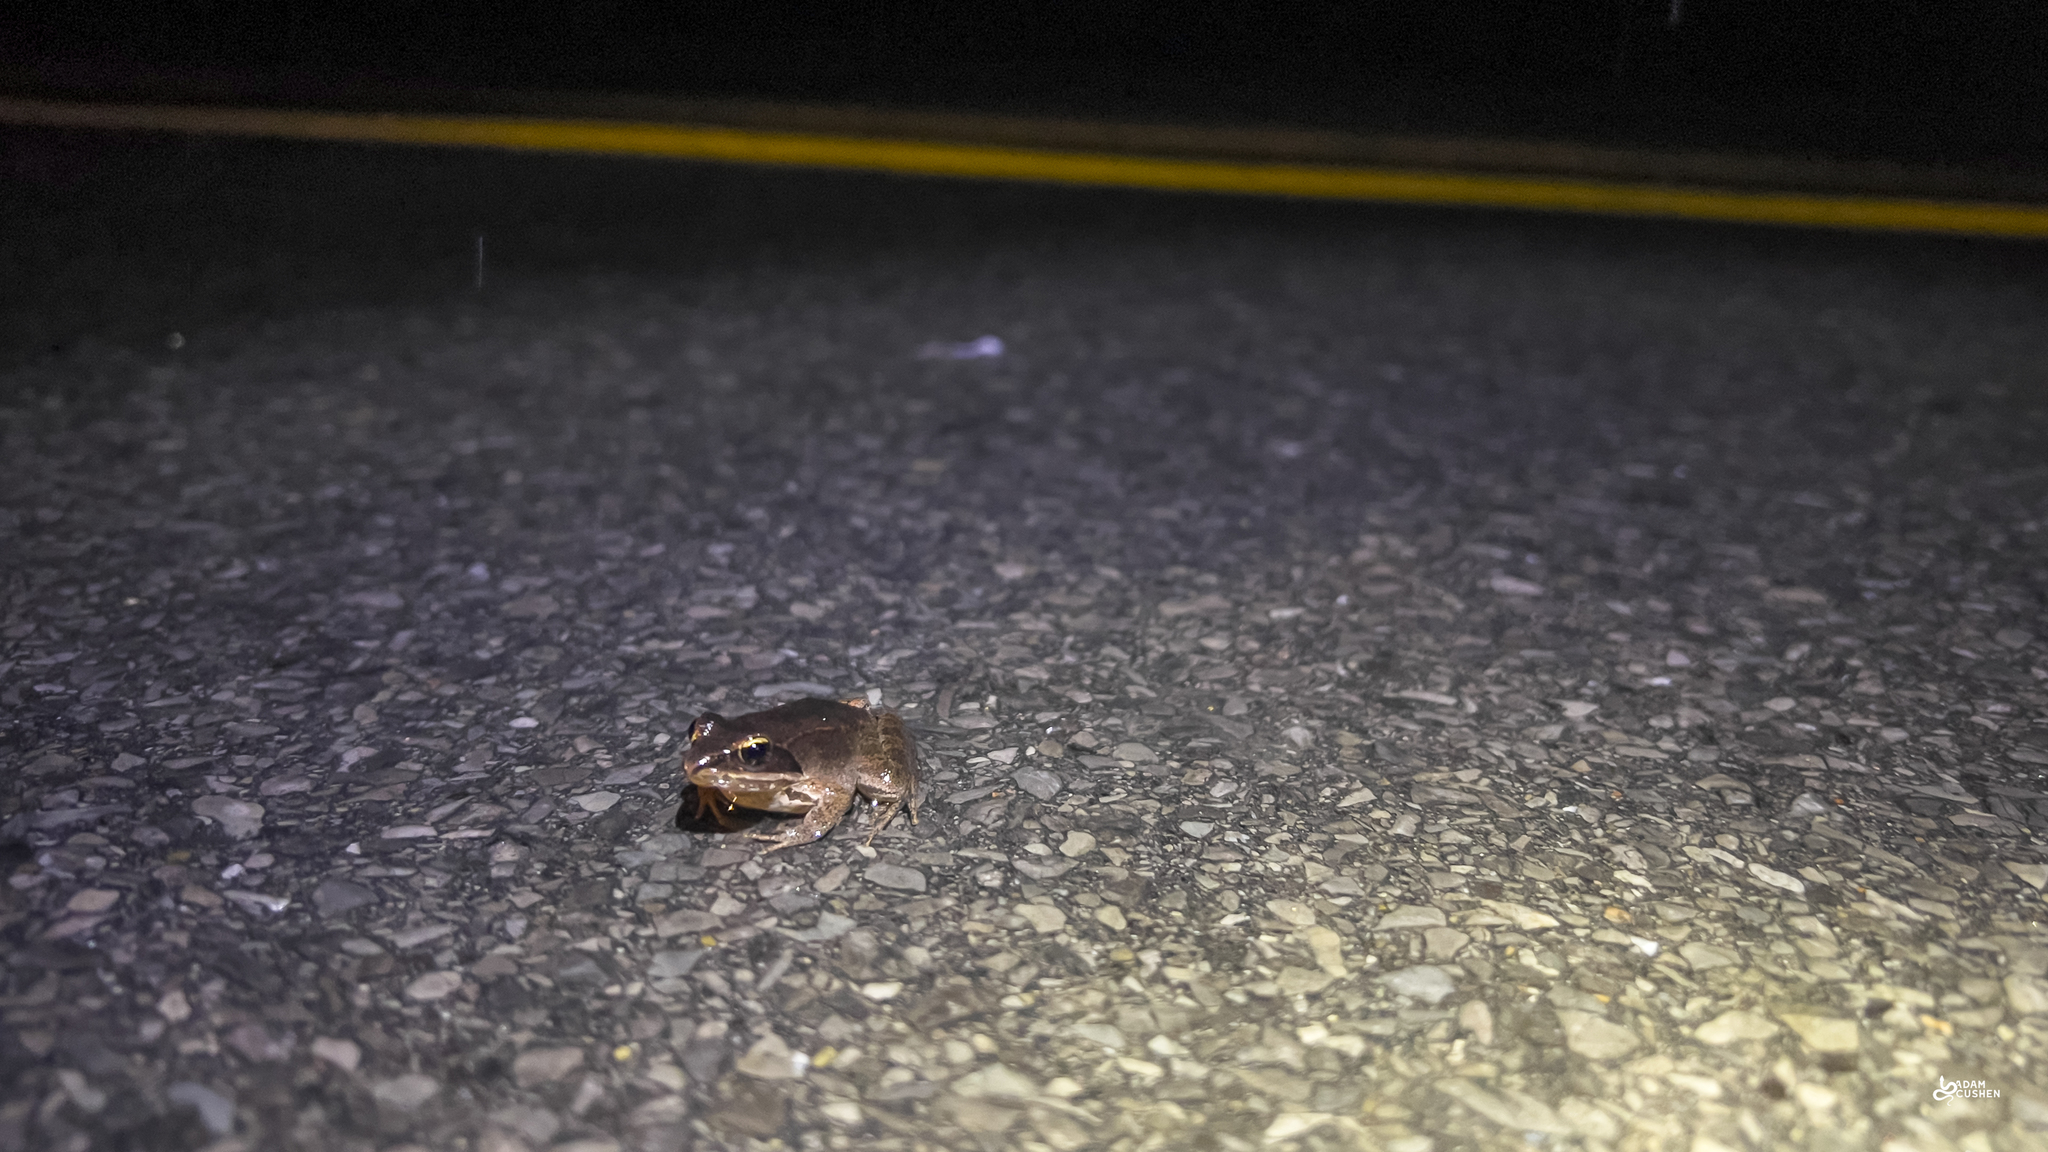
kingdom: Animalia
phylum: Chordata
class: Amphibia
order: Anura
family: Ranidae
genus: Lithobates
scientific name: Lithobates sylvaticus
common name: Wood frog
